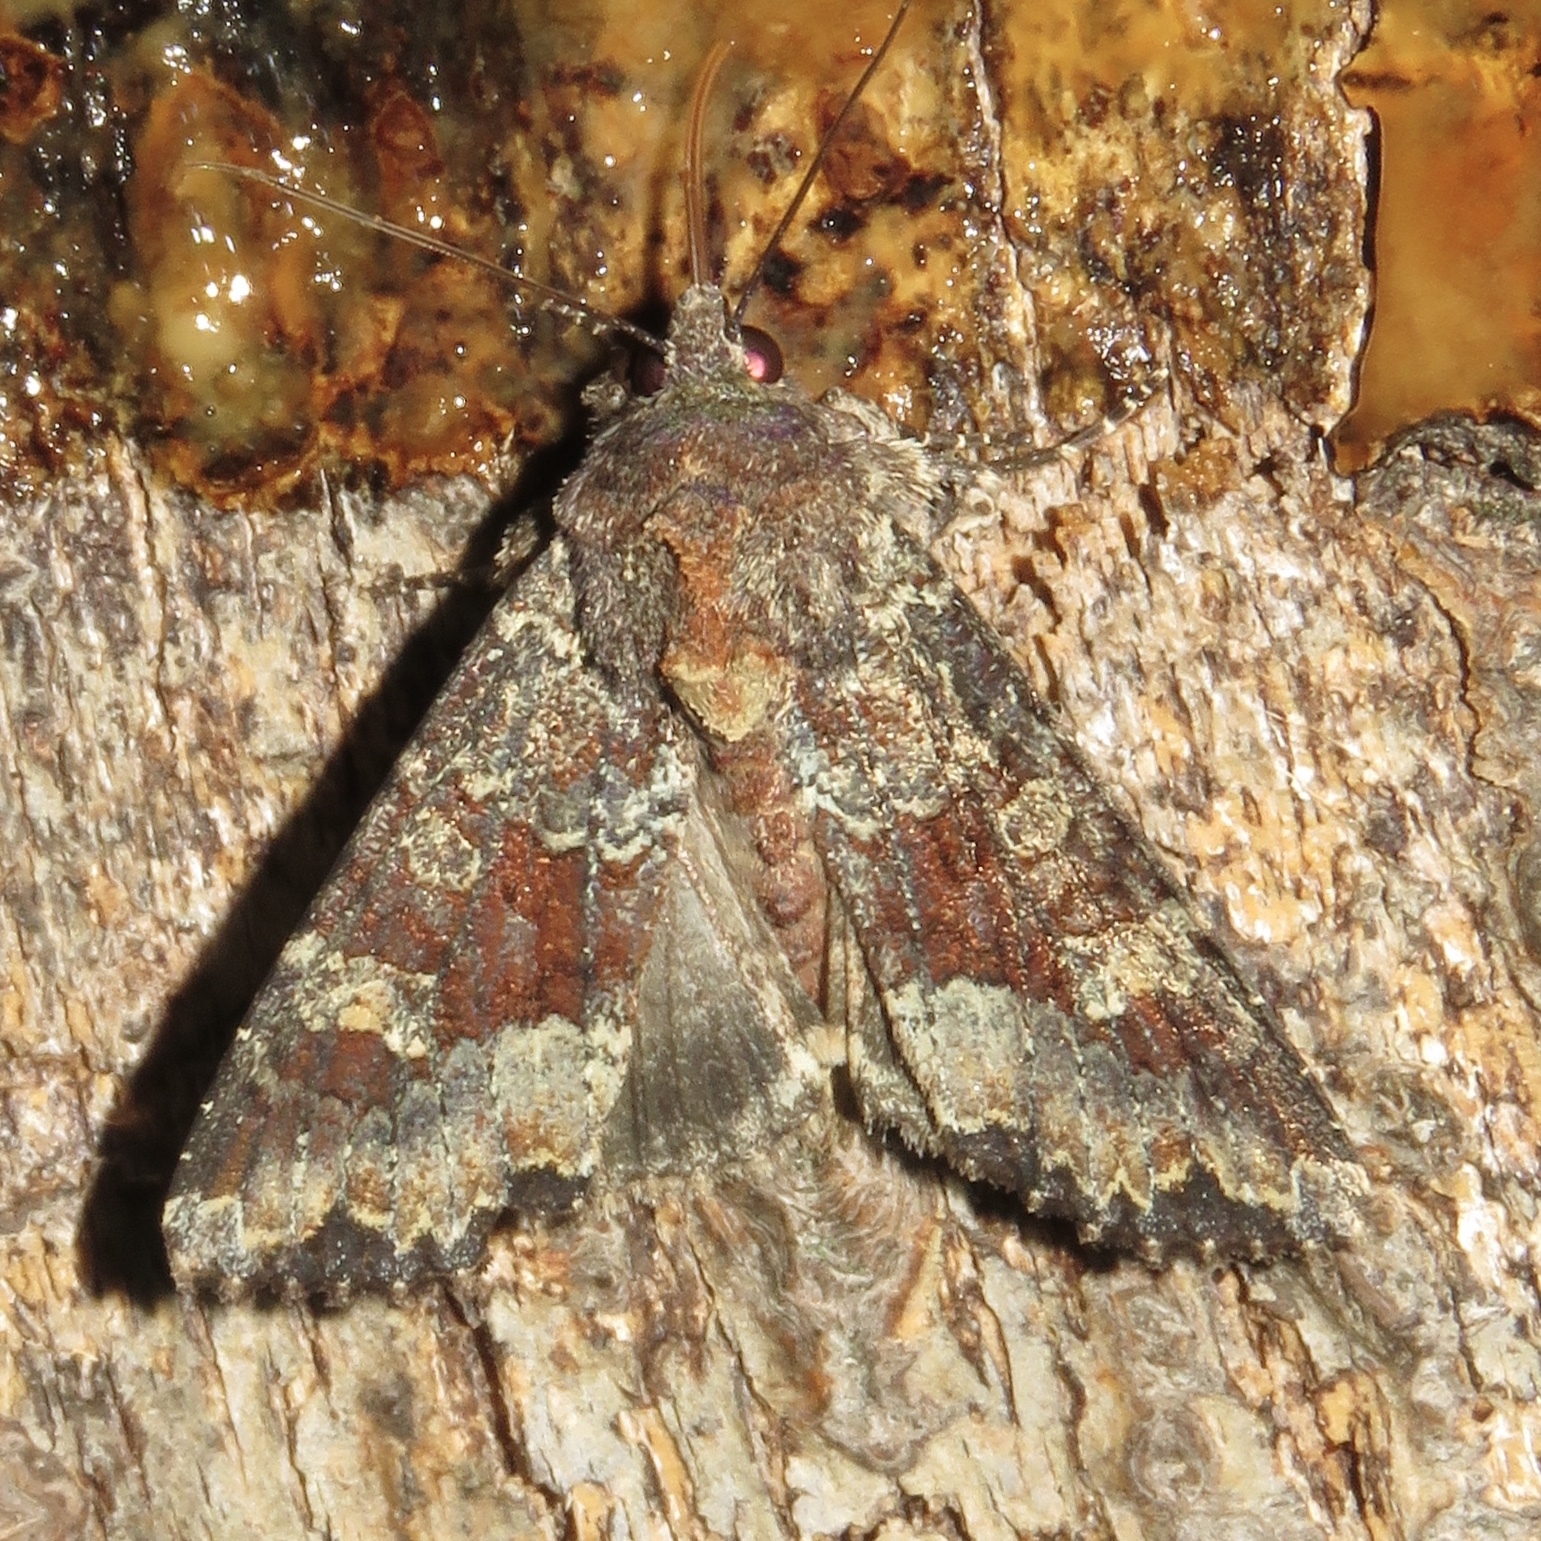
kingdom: Animalia
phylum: Arthropoda
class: Insecta
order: Lepidoptera
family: Noctuidae
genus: Apamea
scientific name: Apamea amputatrix
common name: Yellow-headed cutworm moth
